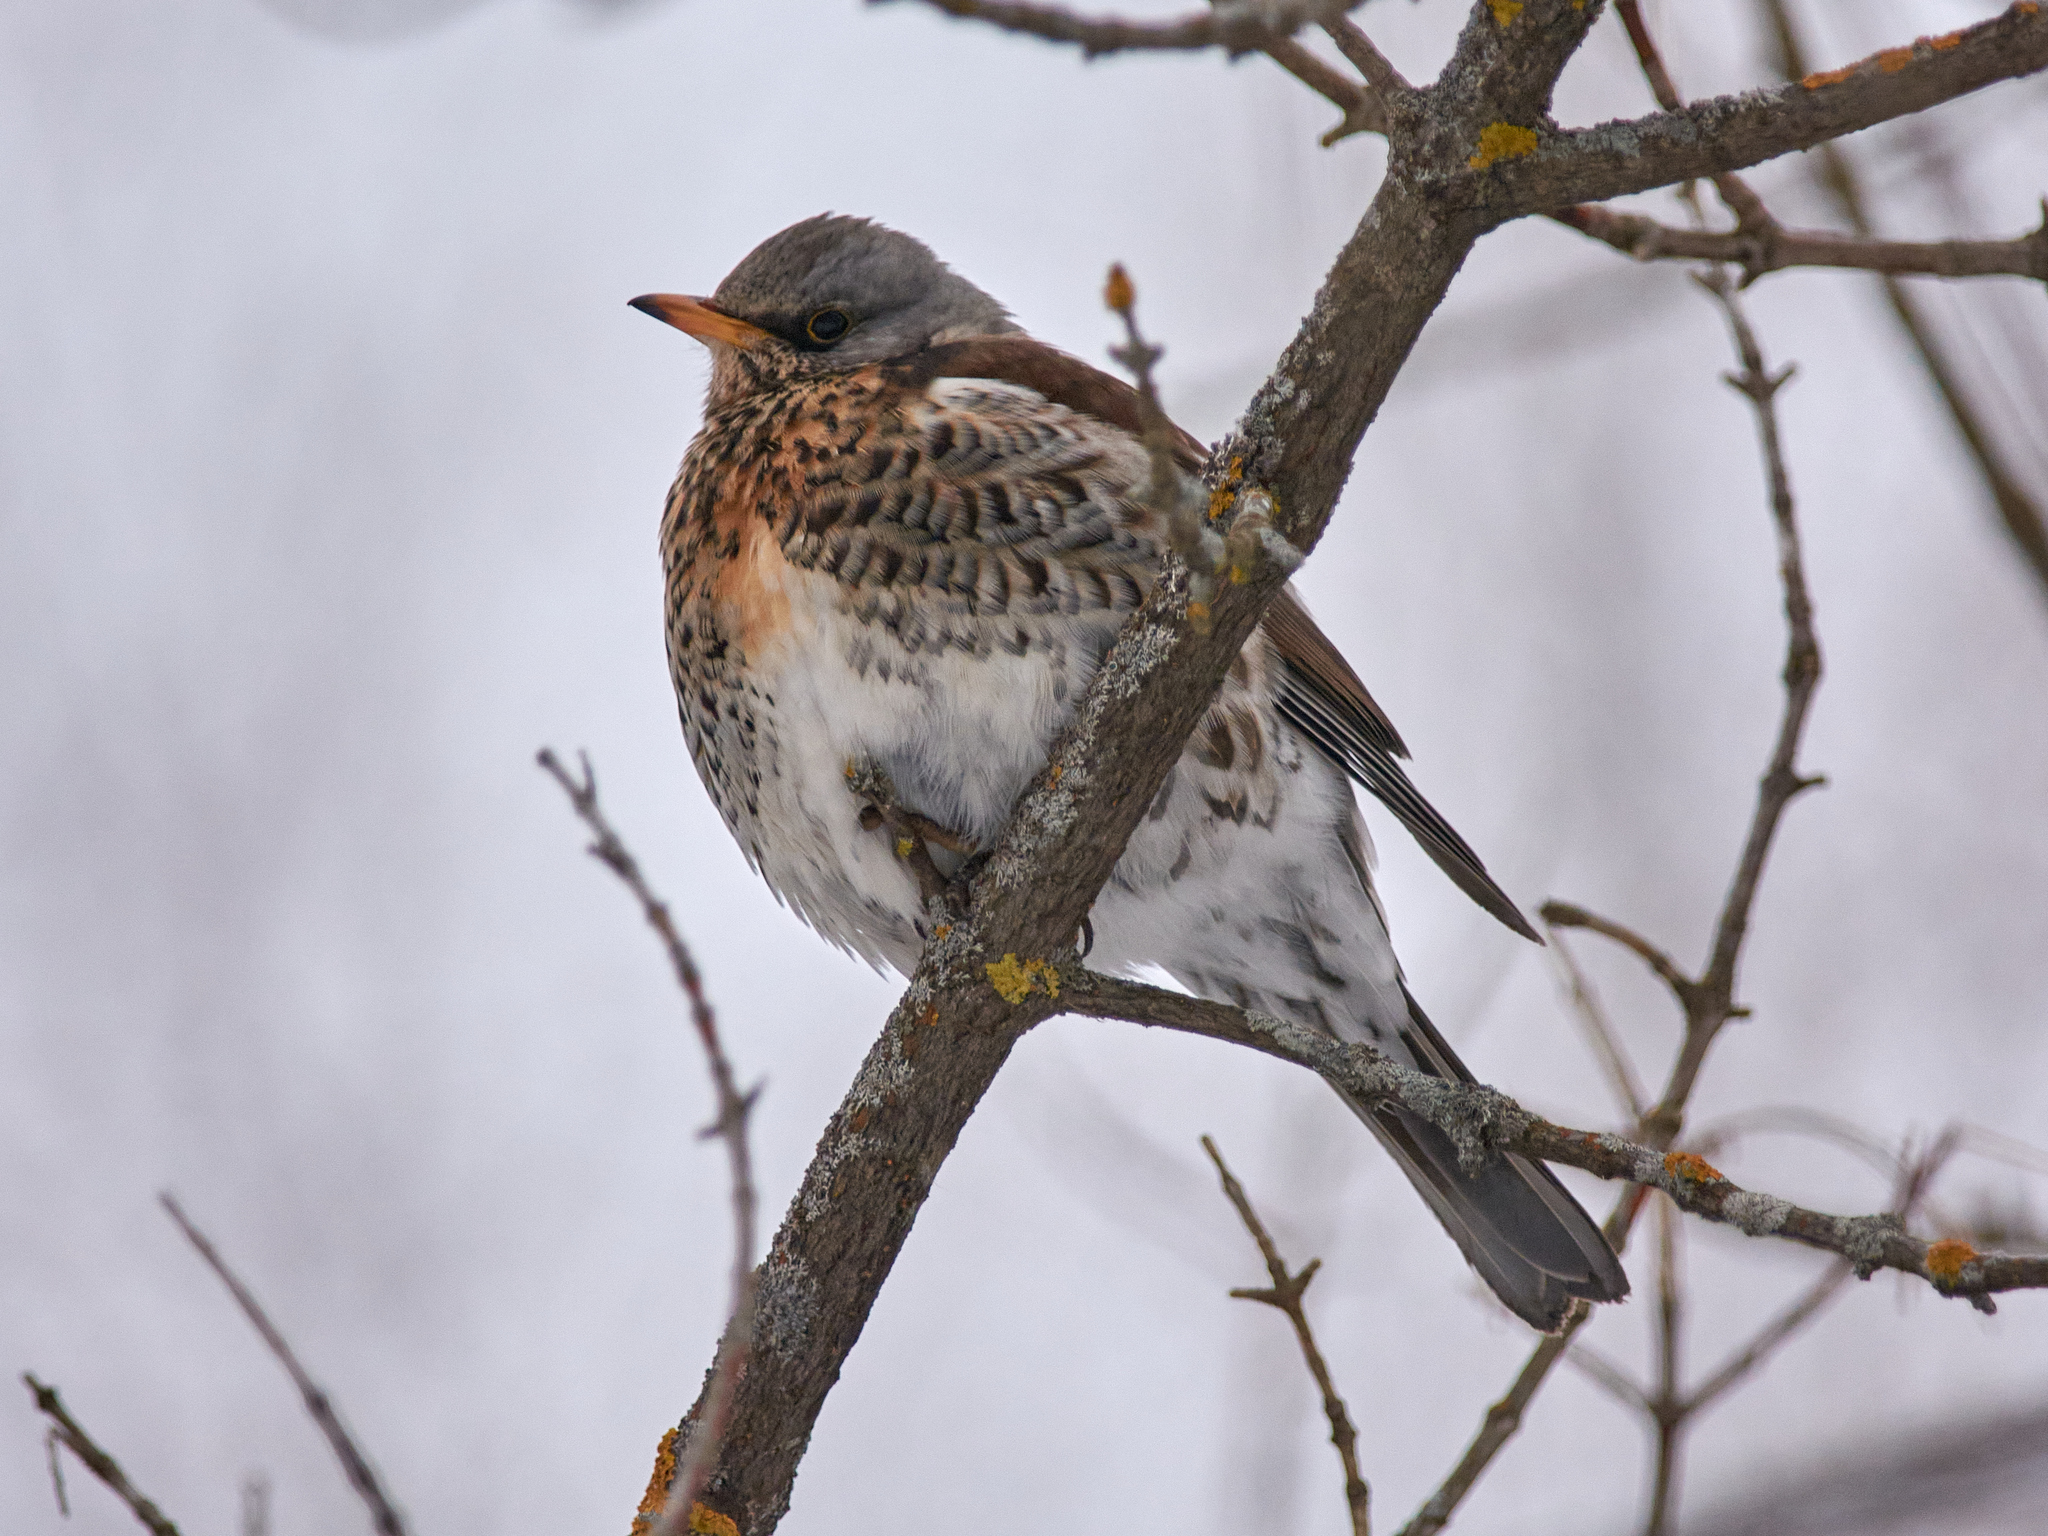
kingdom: Animalia
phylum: Chordata
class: Aves
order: Passeriformes
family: Turdidae
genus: Turdus
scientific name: Turdus pilaris
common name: Fieldfare
